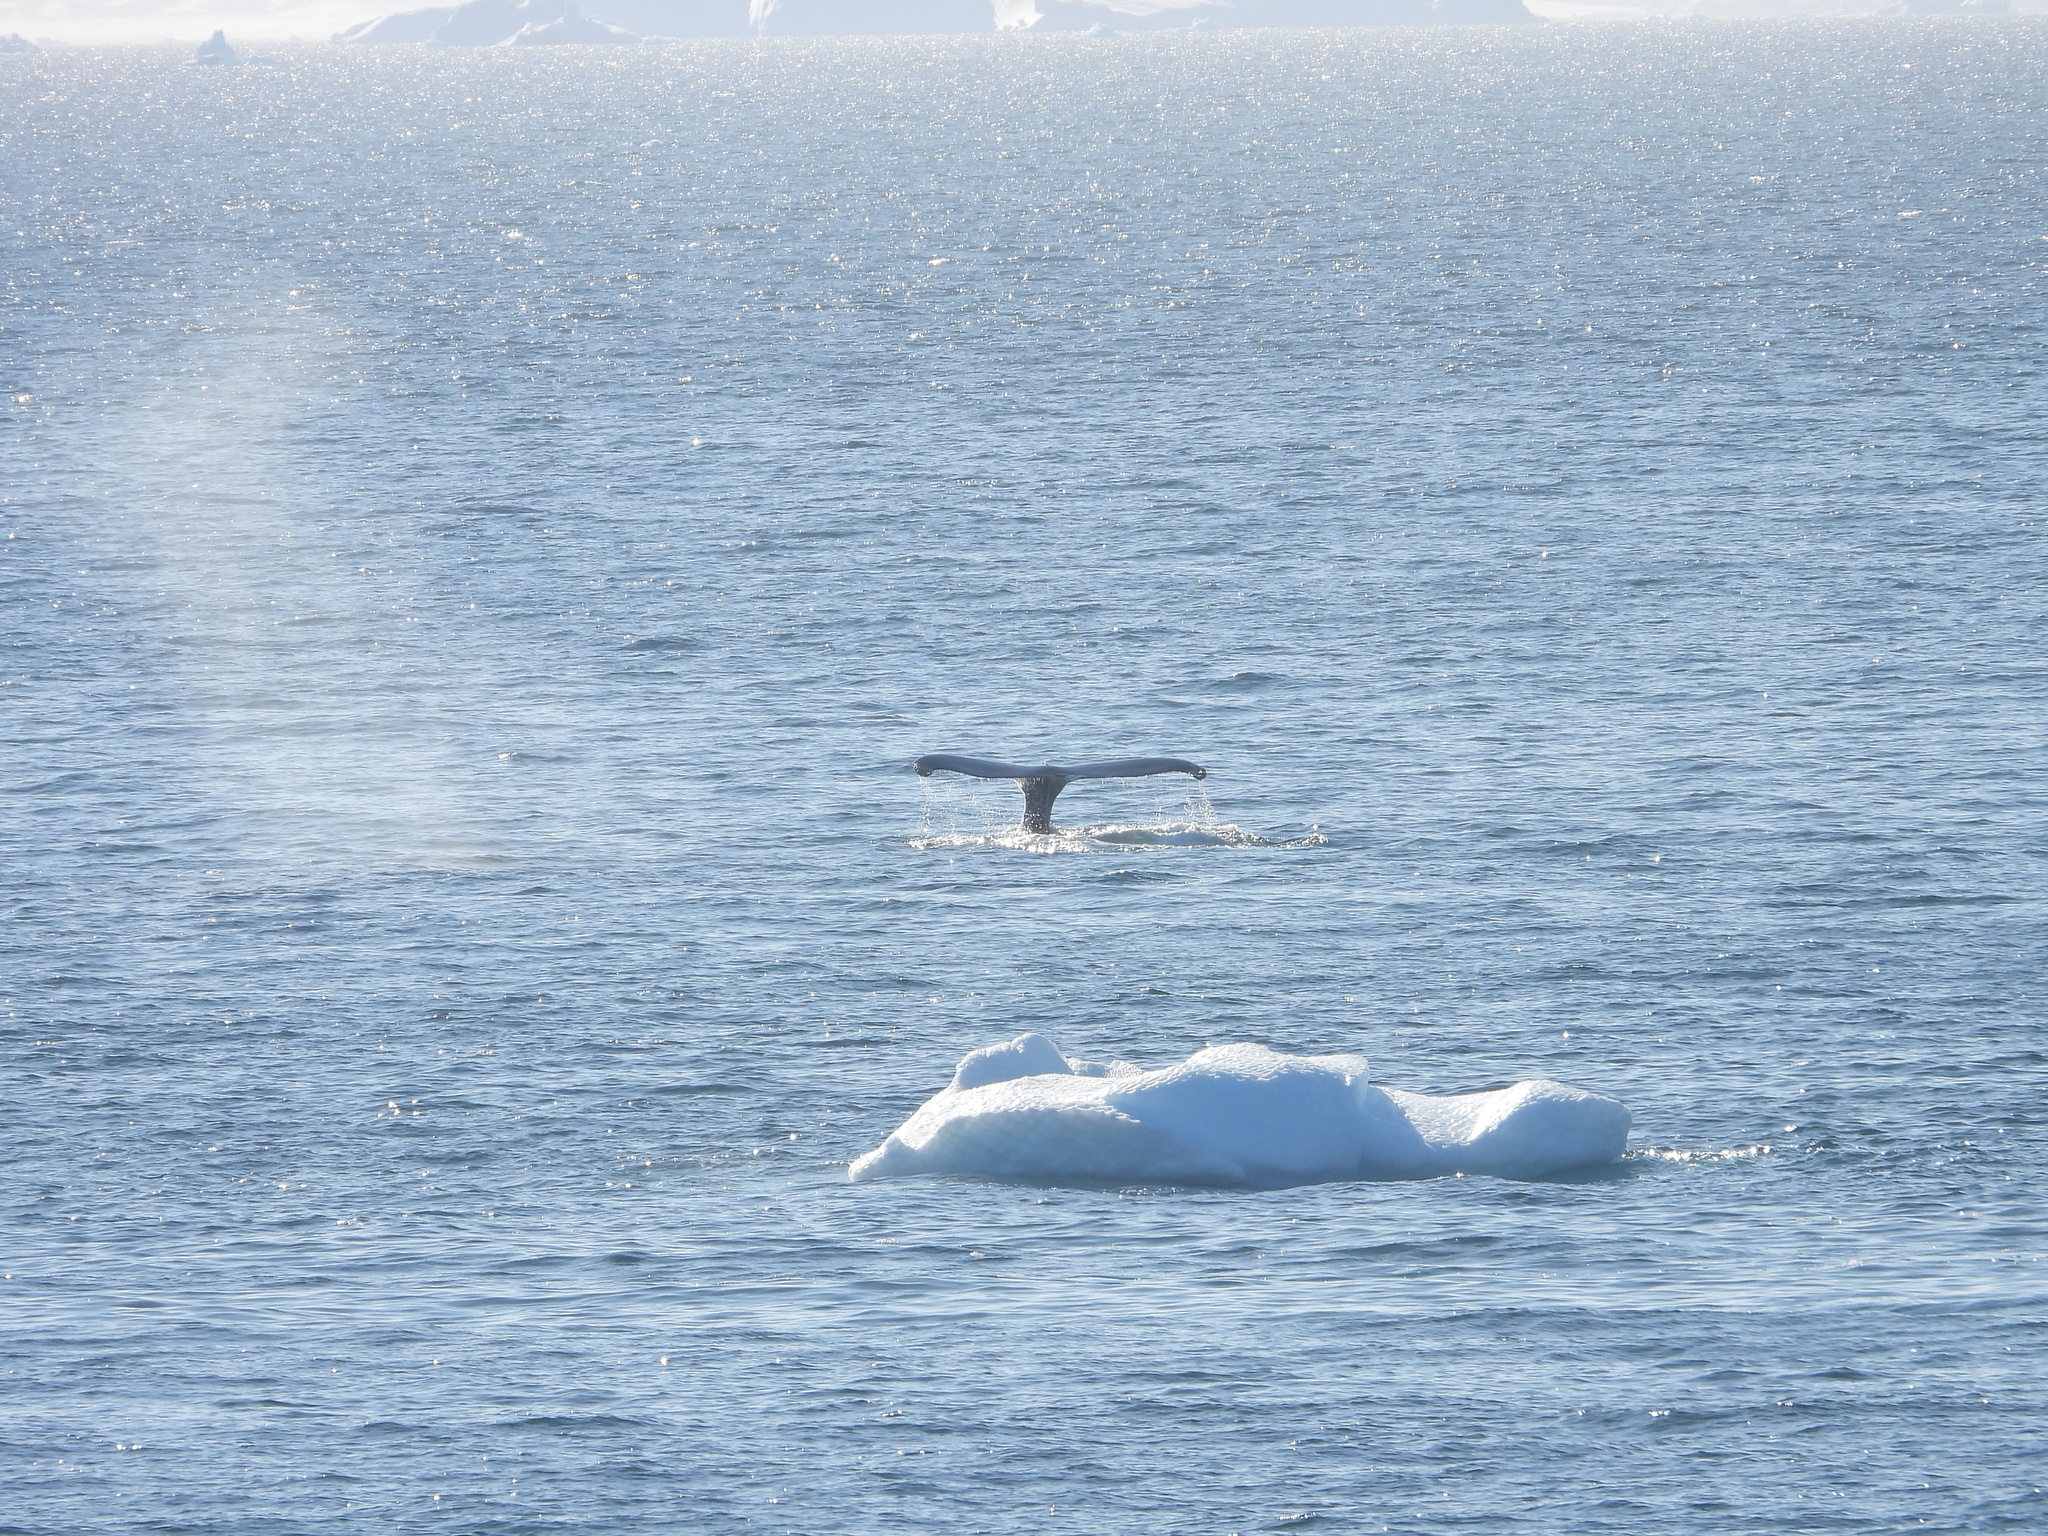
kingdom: Animalia
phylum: Chordata
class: Mammalia
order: Cetacea
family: Balaenopteridae
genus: Megaptera
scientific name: Megaptera novaeangliae
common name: Humpback whale
